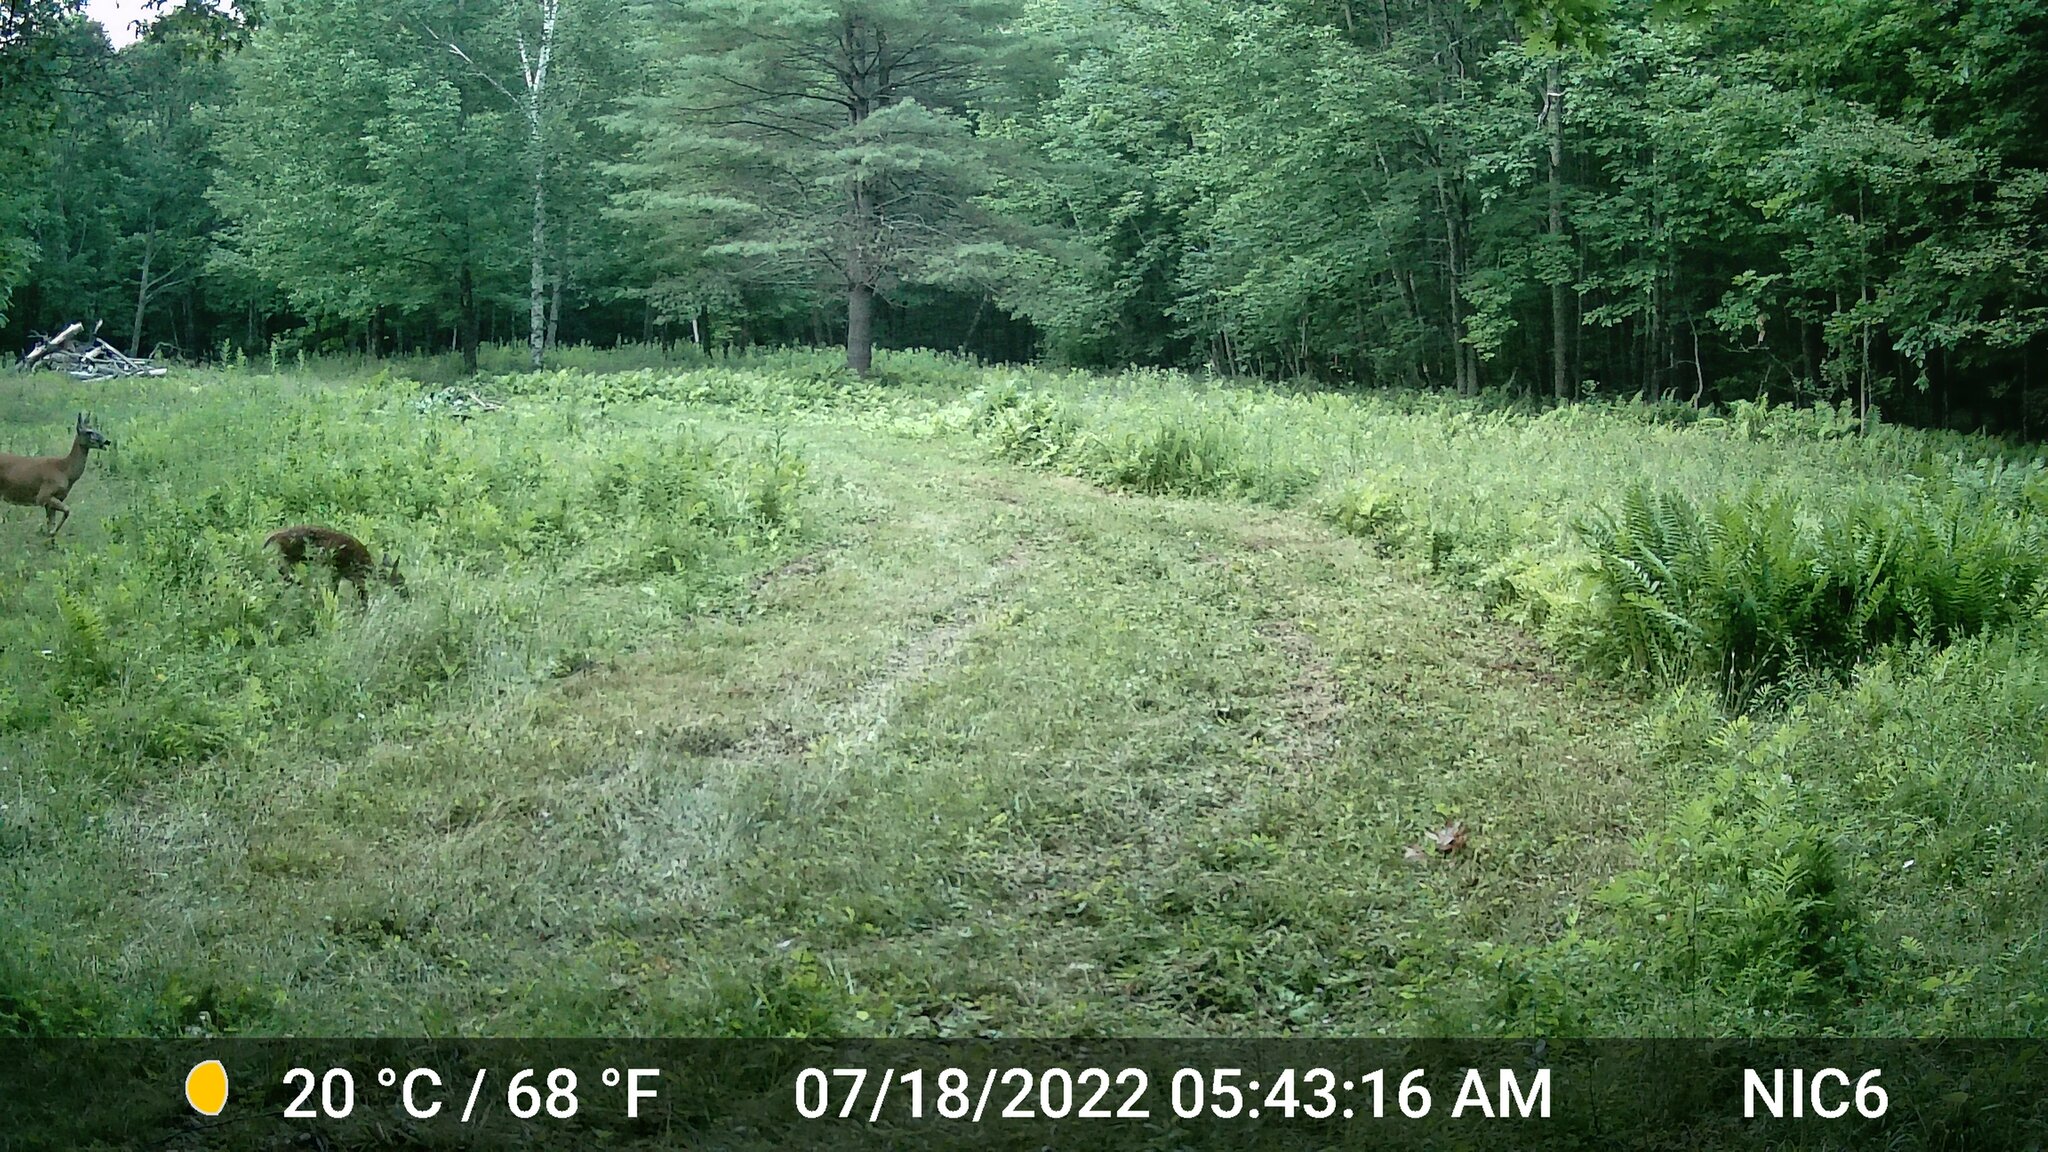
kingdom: Animalia
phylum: Chordata
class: Mammalia
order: Artiodactyla
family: Cervidae
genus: Odocoileus
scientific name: Odocoileus virginianus
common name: White-tailed deer
